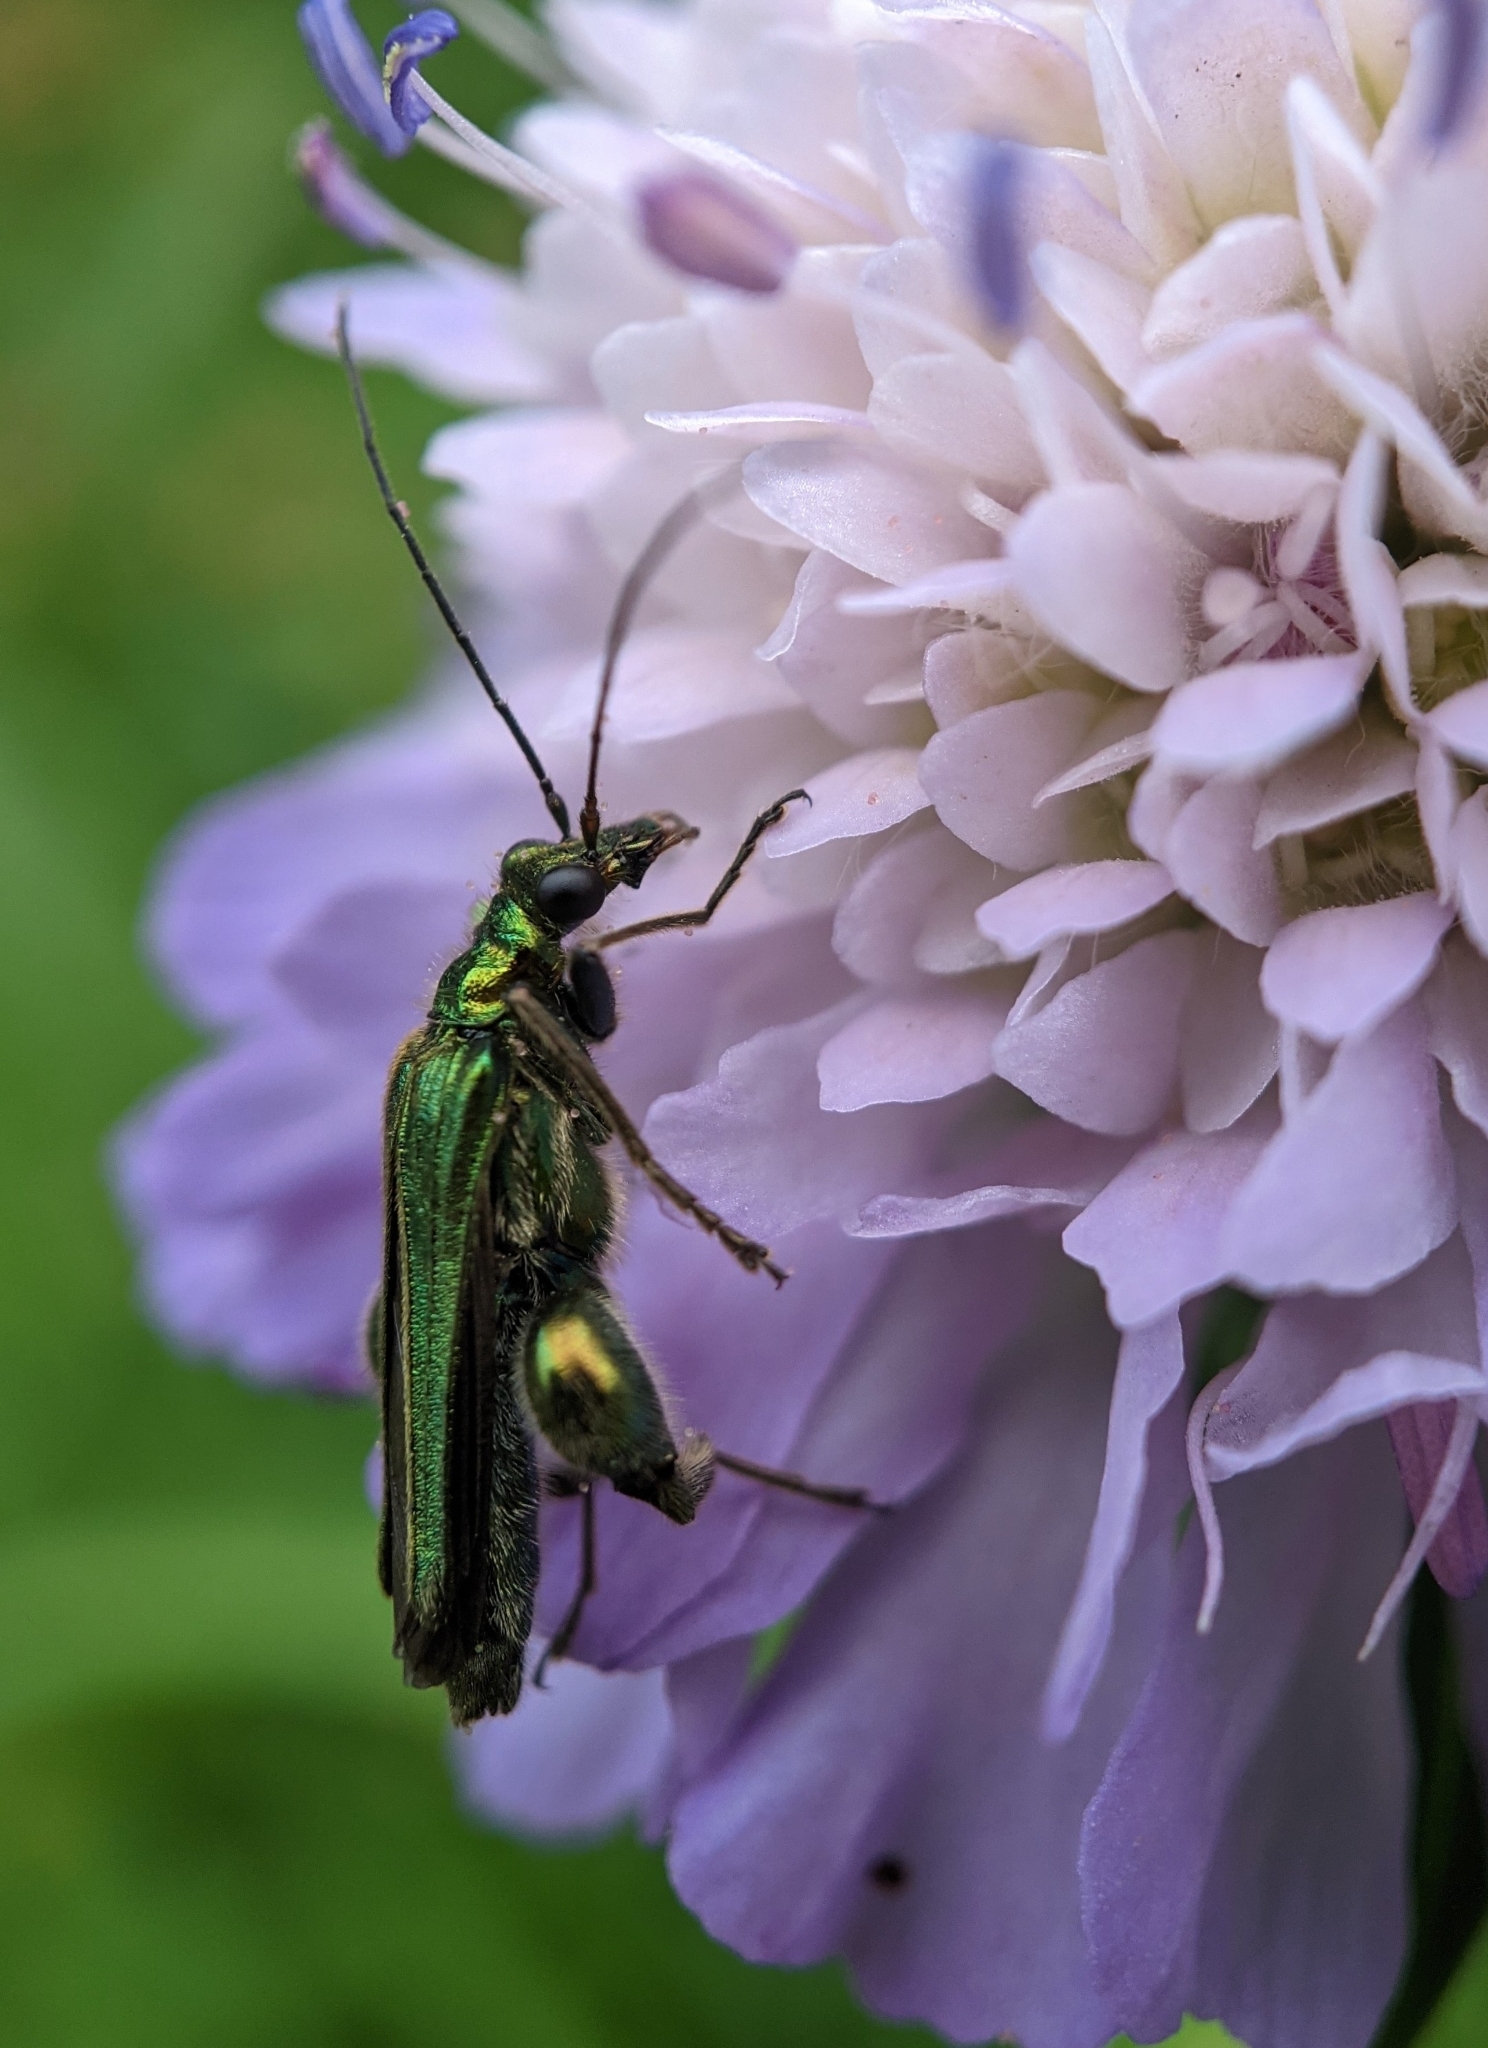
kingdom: Animalia
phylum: Arthropoda
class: Insecta
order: Coleoptera
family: Oedemeridae
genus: Oedemera
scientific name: Oedemera nobilis
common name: Swollen-thighed beetle
